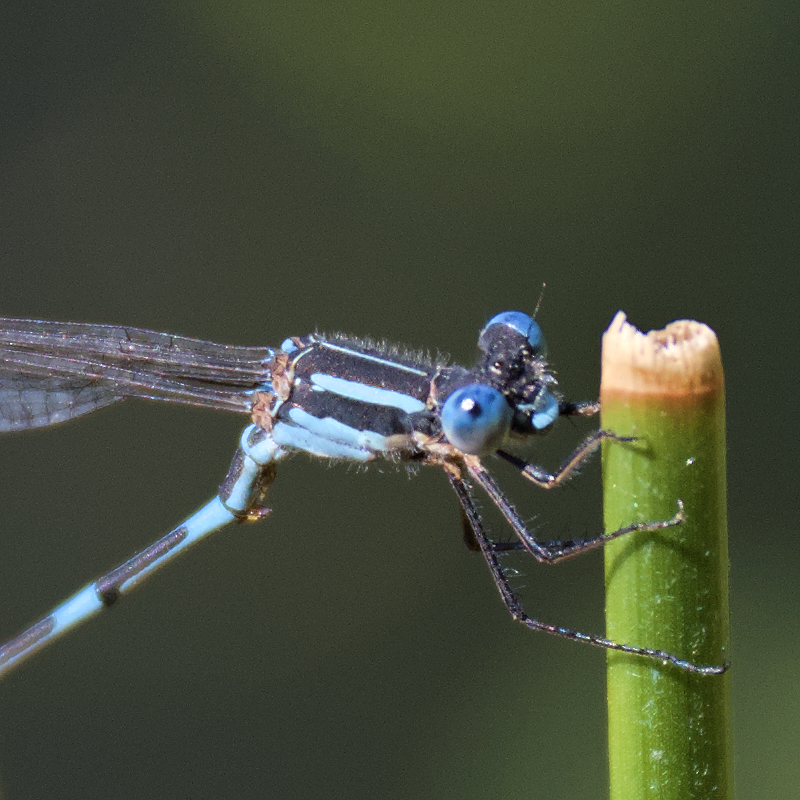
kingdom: Animalia
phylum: Arthropoda
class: Insecta
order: Odonata
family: Lestidae
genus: Austrolestes
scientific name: Austrolestes leda
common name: Wandering ringtail
